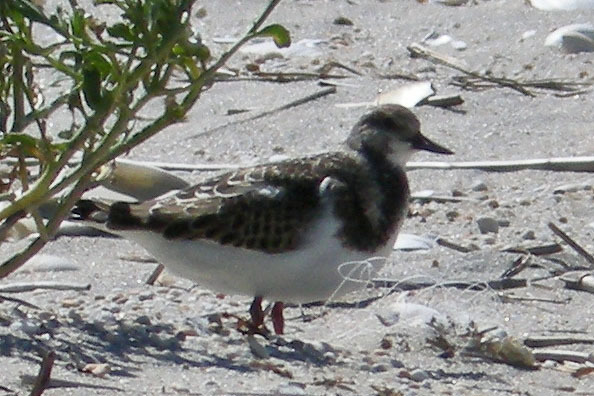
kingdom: Animalia
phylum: Chordata
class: Aves
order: Charadriiformes
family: Scolopacidae
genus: Arenaria
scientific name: Arenaria interpres
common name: Ruddy turnstone
